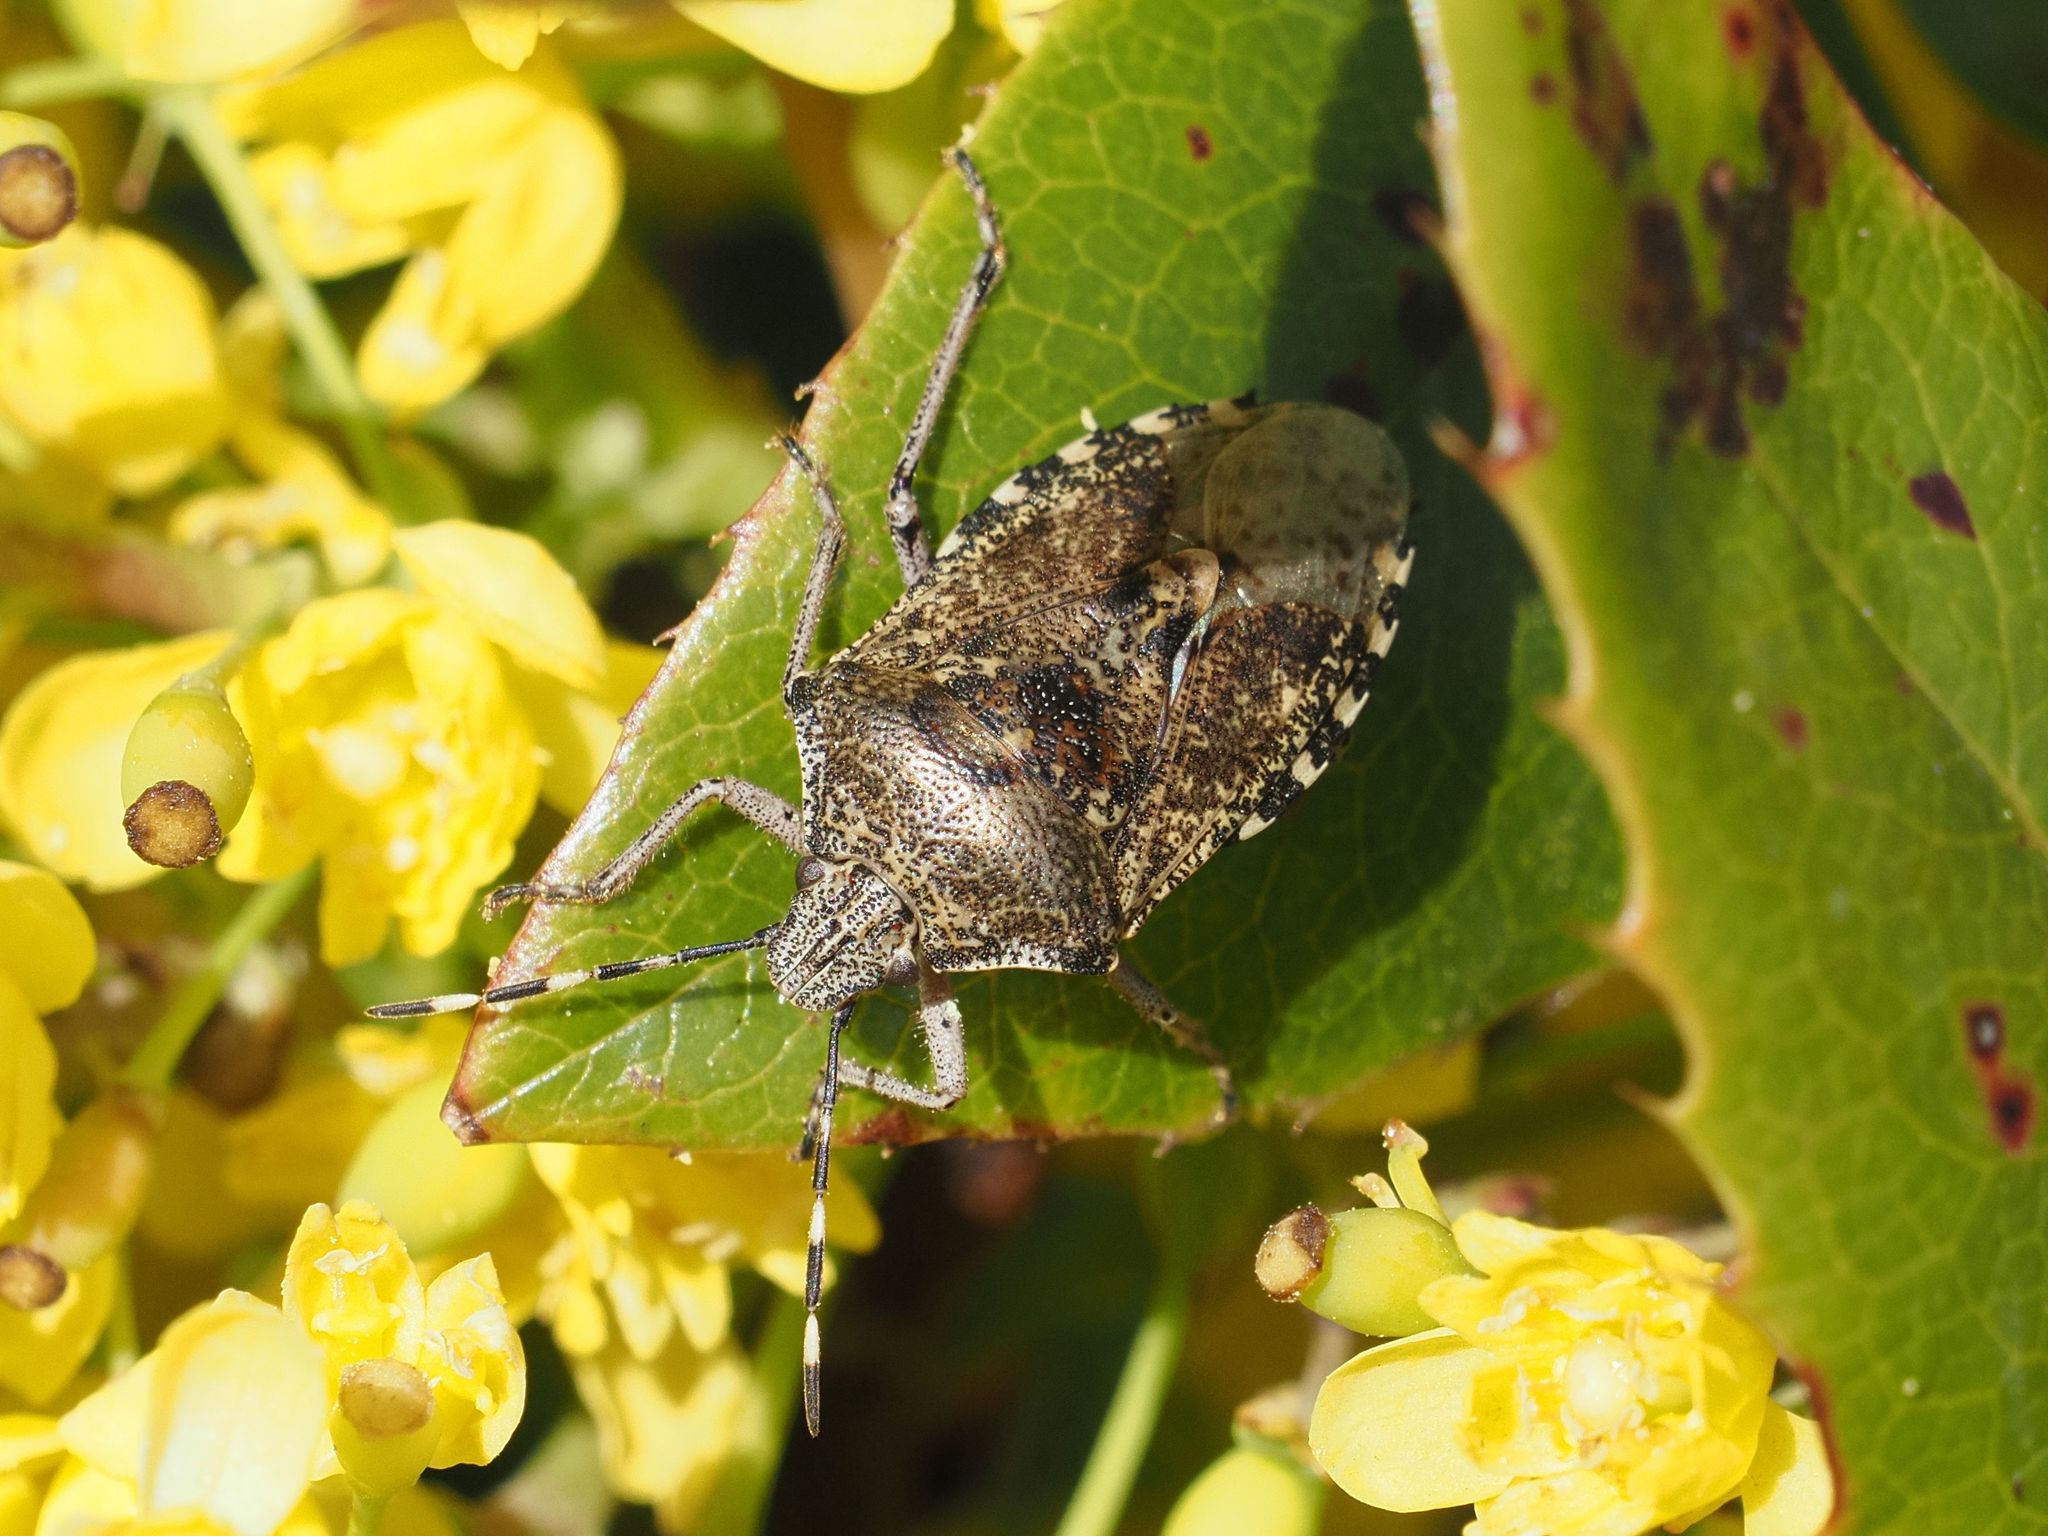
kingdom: Animalia
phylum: Arthropoda
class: Insecta
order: Hemiptera
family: Pentatomidae
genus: Rhaphigaster
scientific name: Rhaphigaster nebulosa
